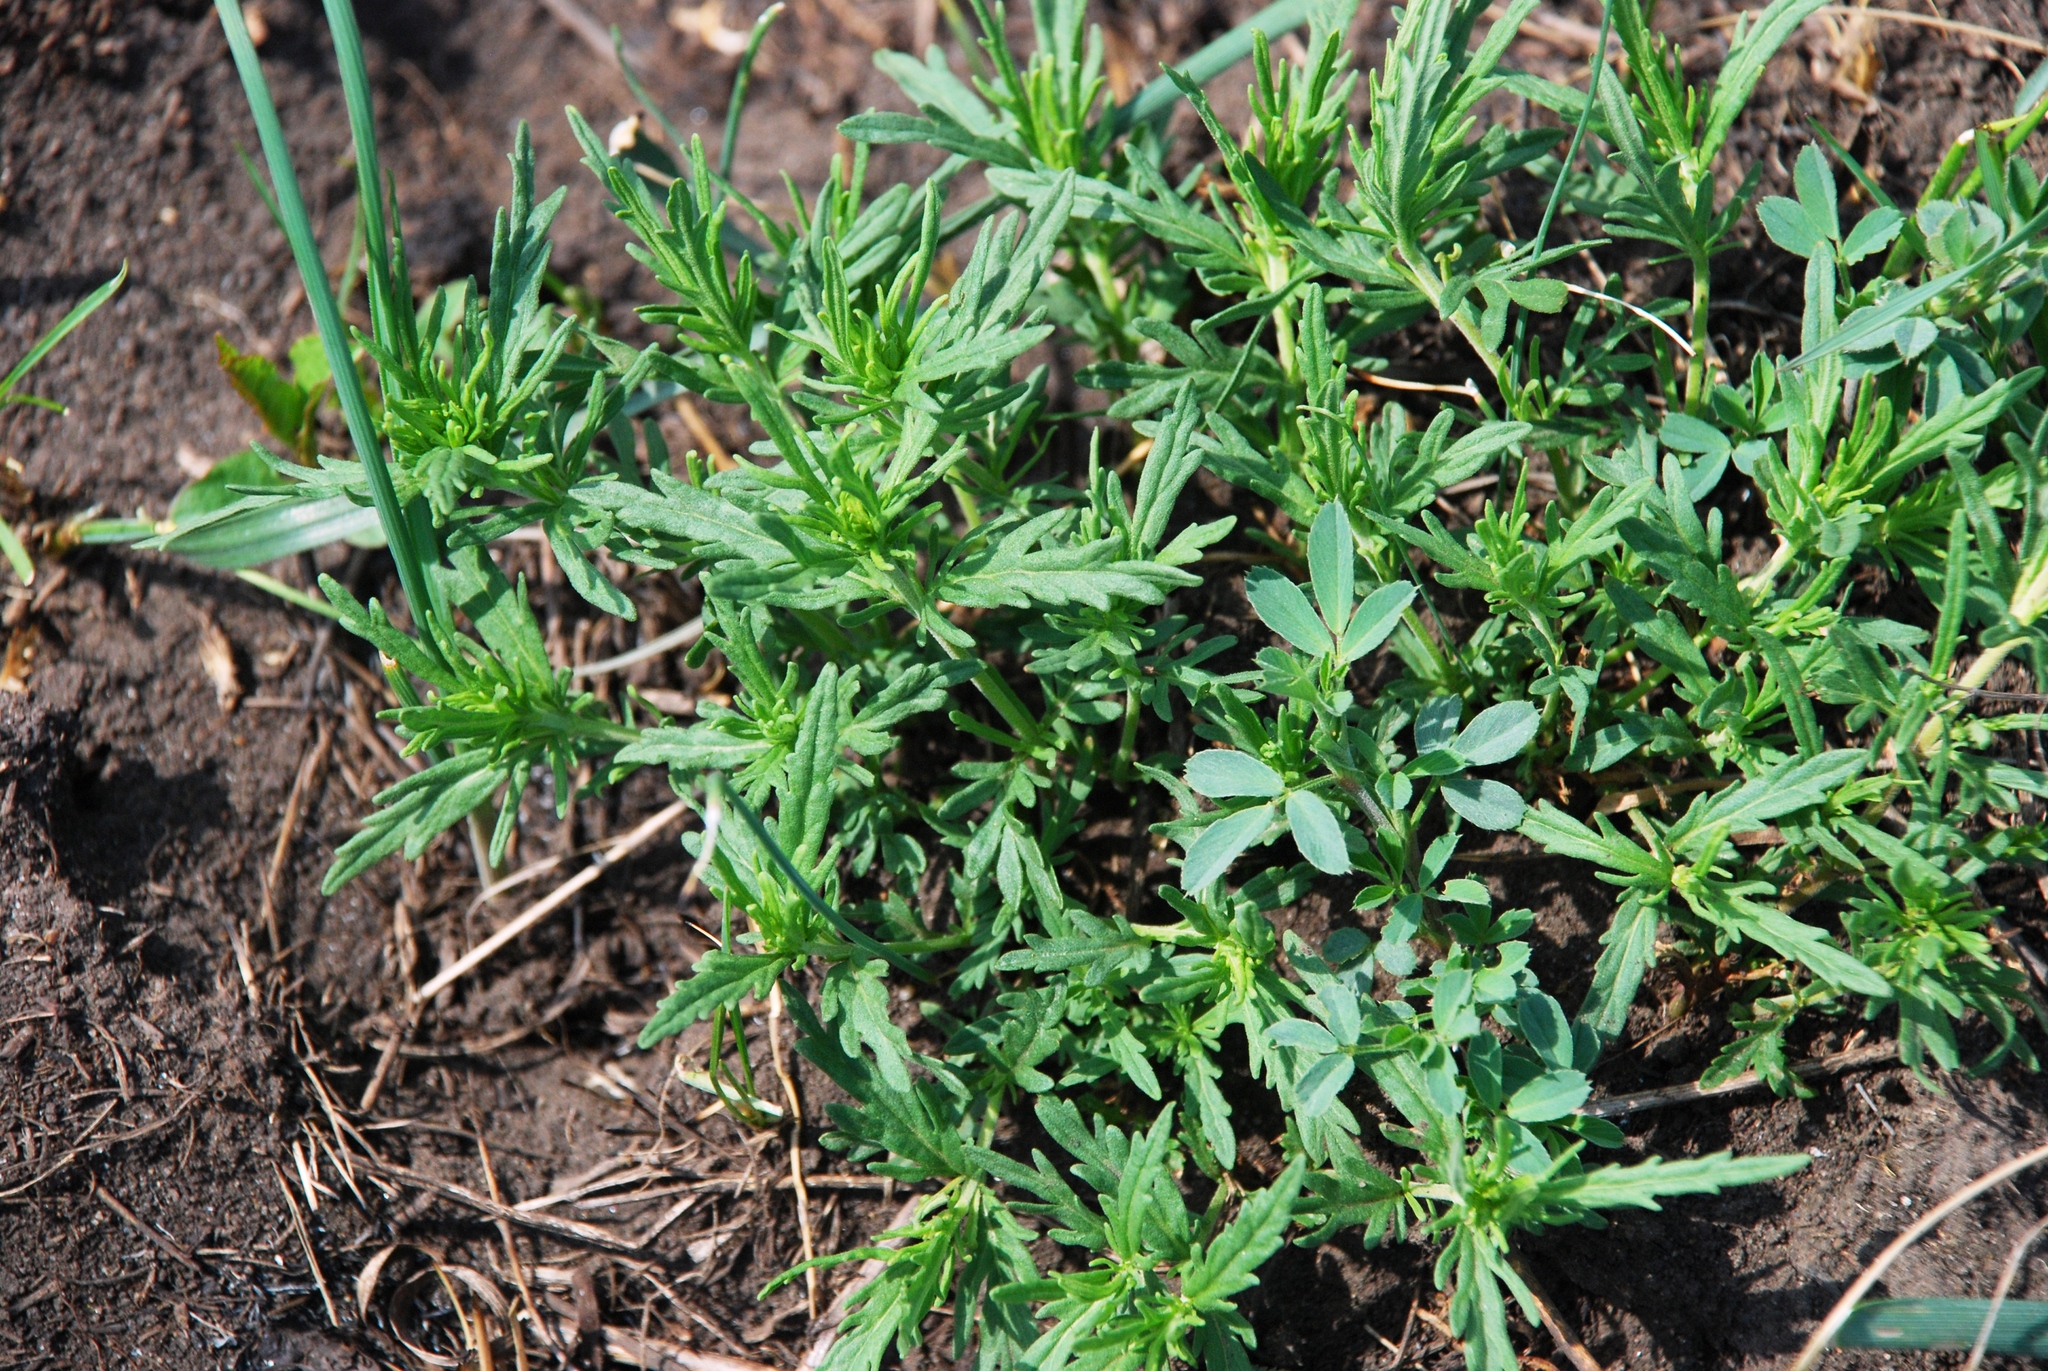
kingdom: Plantae
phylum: Tracheophyta
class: Magnoliopsida
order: Lamiales
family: Plantaginaceae
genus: Veronica
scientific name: Veronica austriaca
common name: Large speedwell
